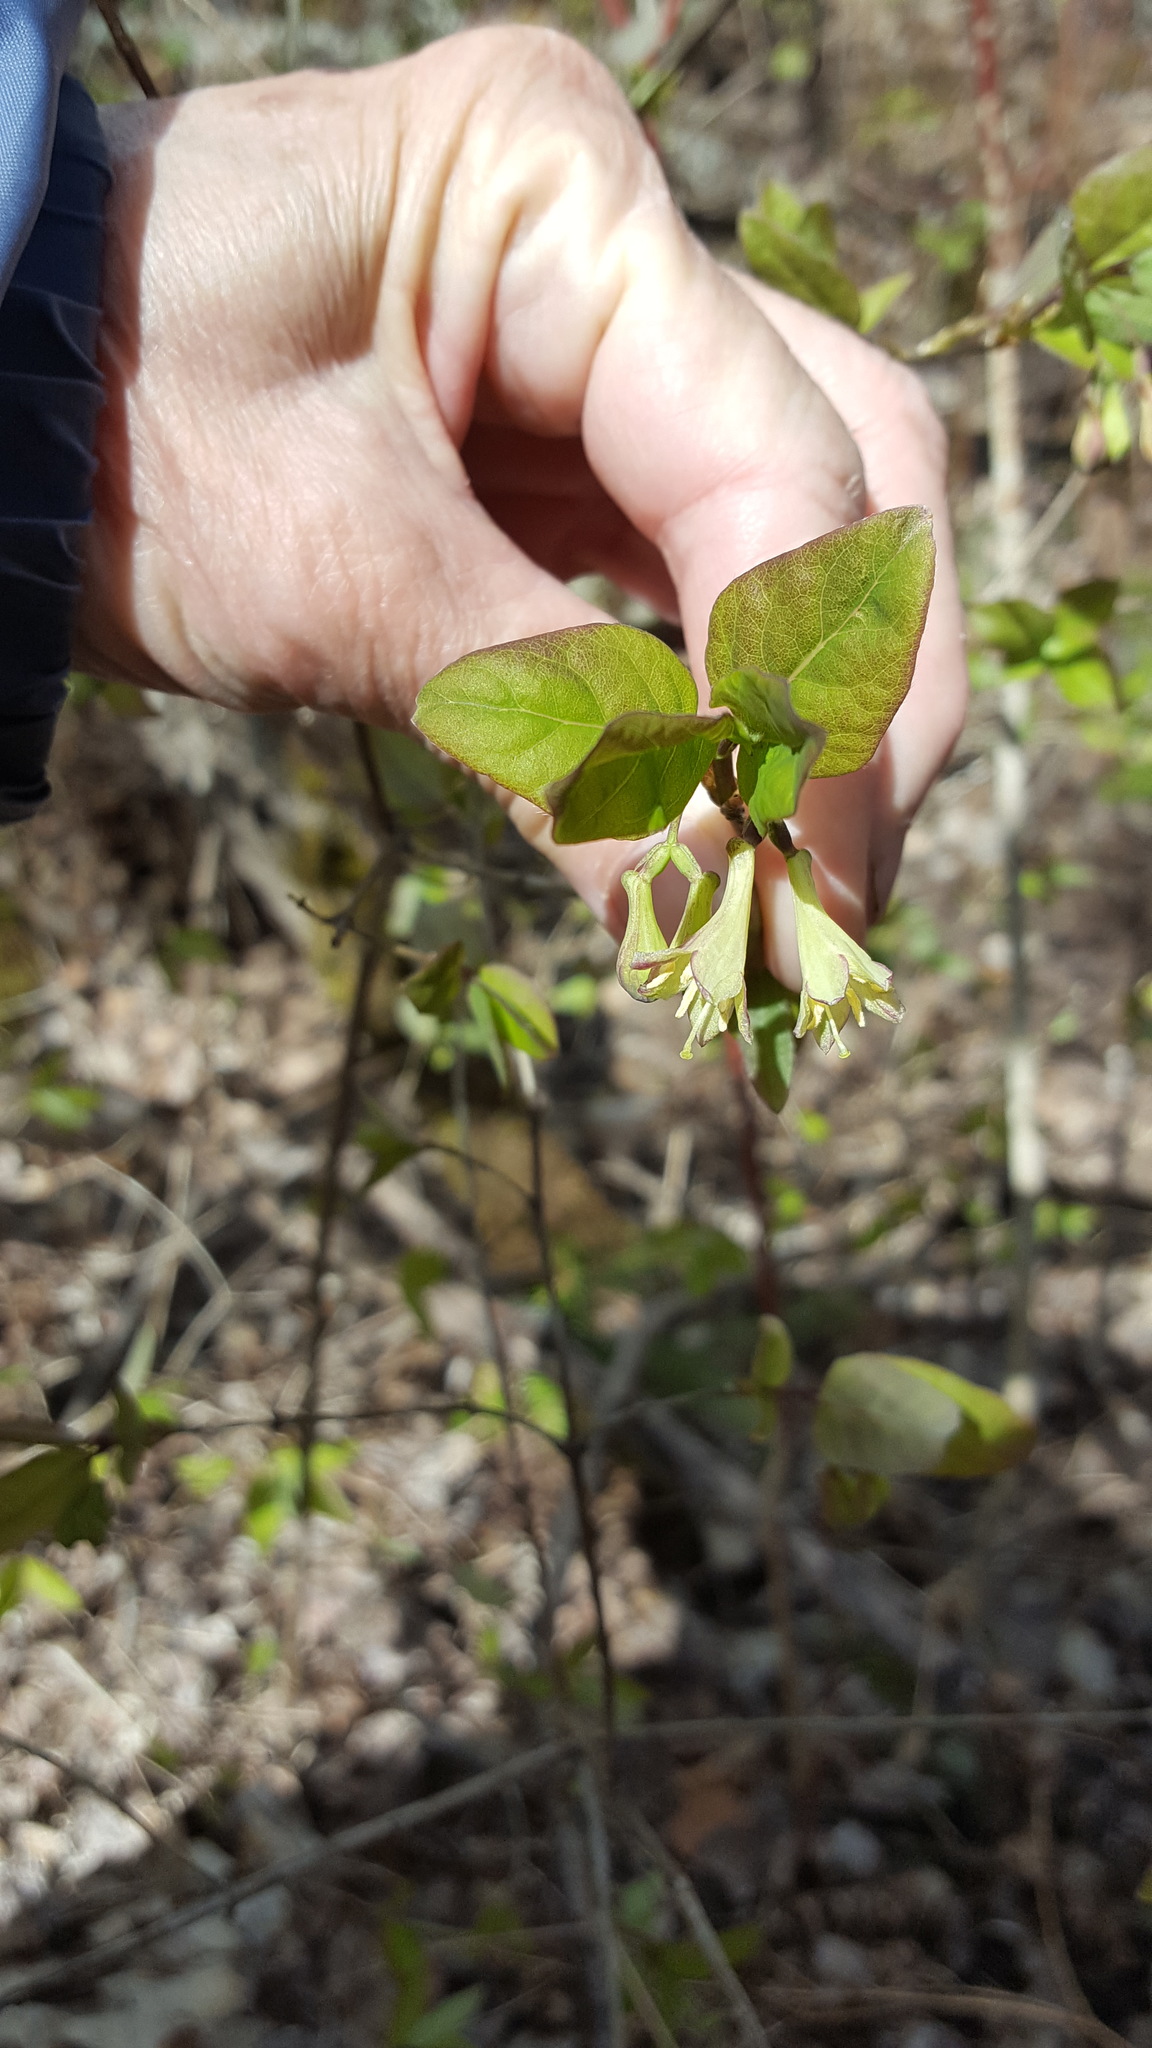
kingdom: Plantae
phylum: Tracheophyta
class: Magnoliopsida
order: Dipsacales
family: Caprifoliaceae
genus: Lonicera
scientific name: Lonicera canadensis
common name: American fly-honeysuckle
